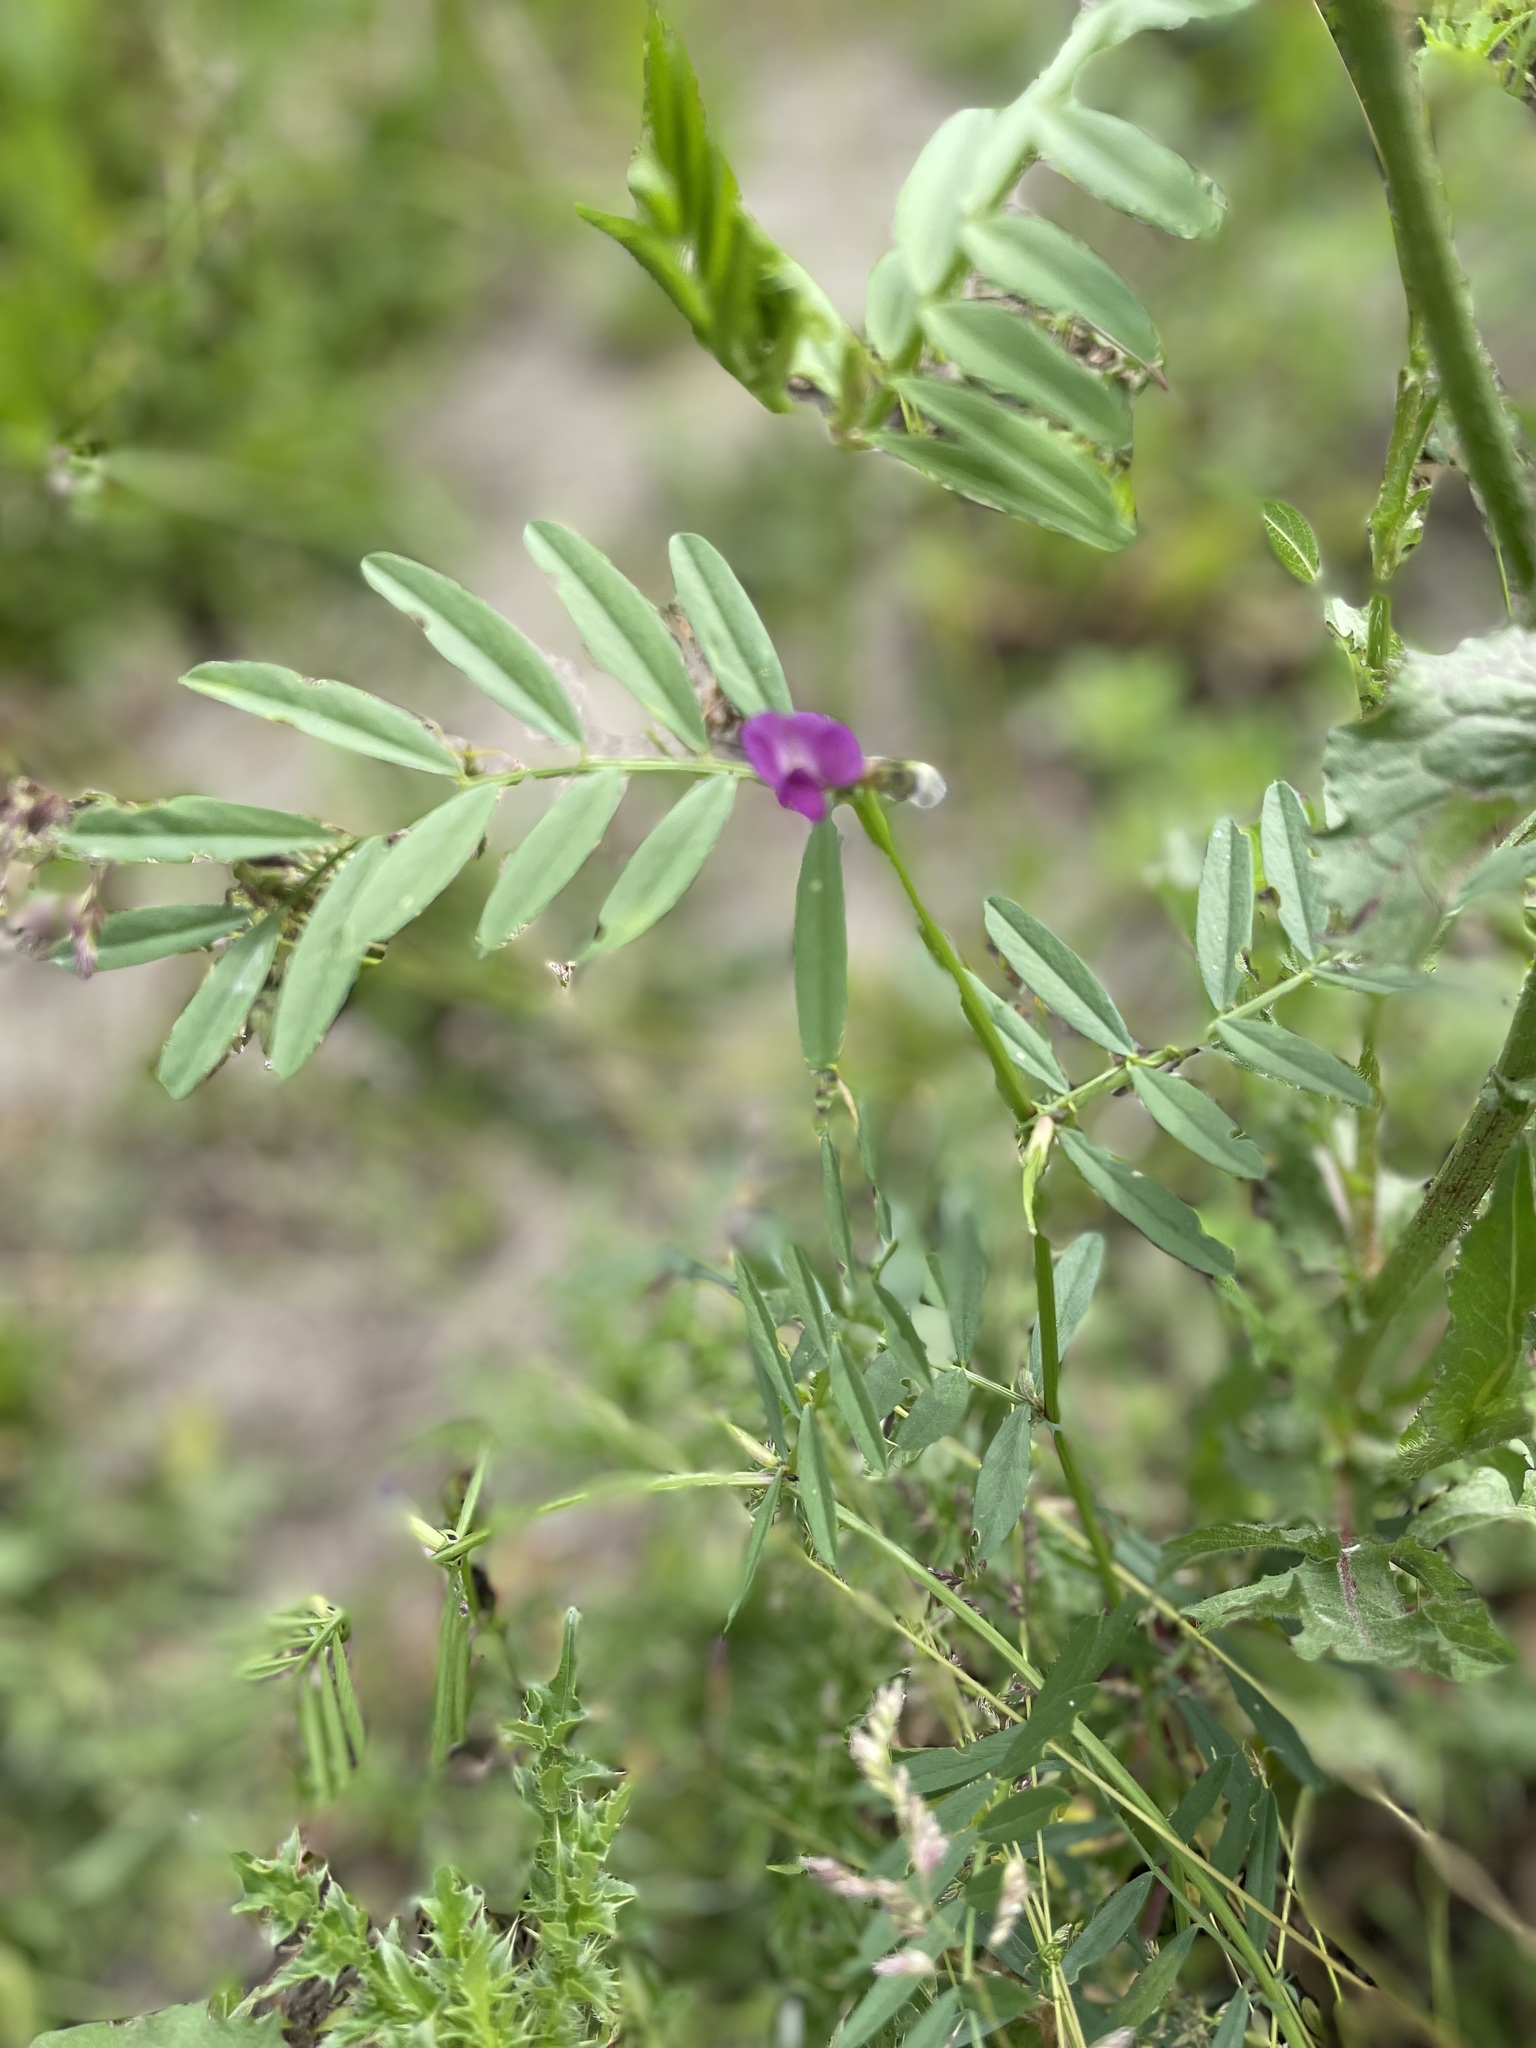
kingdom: Plantae
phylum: Tracheophyta
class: Magnoliopsida
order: Fabales
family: Fabaceae
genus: Vicia
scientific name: Vicia sativa
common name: Garden vetch
